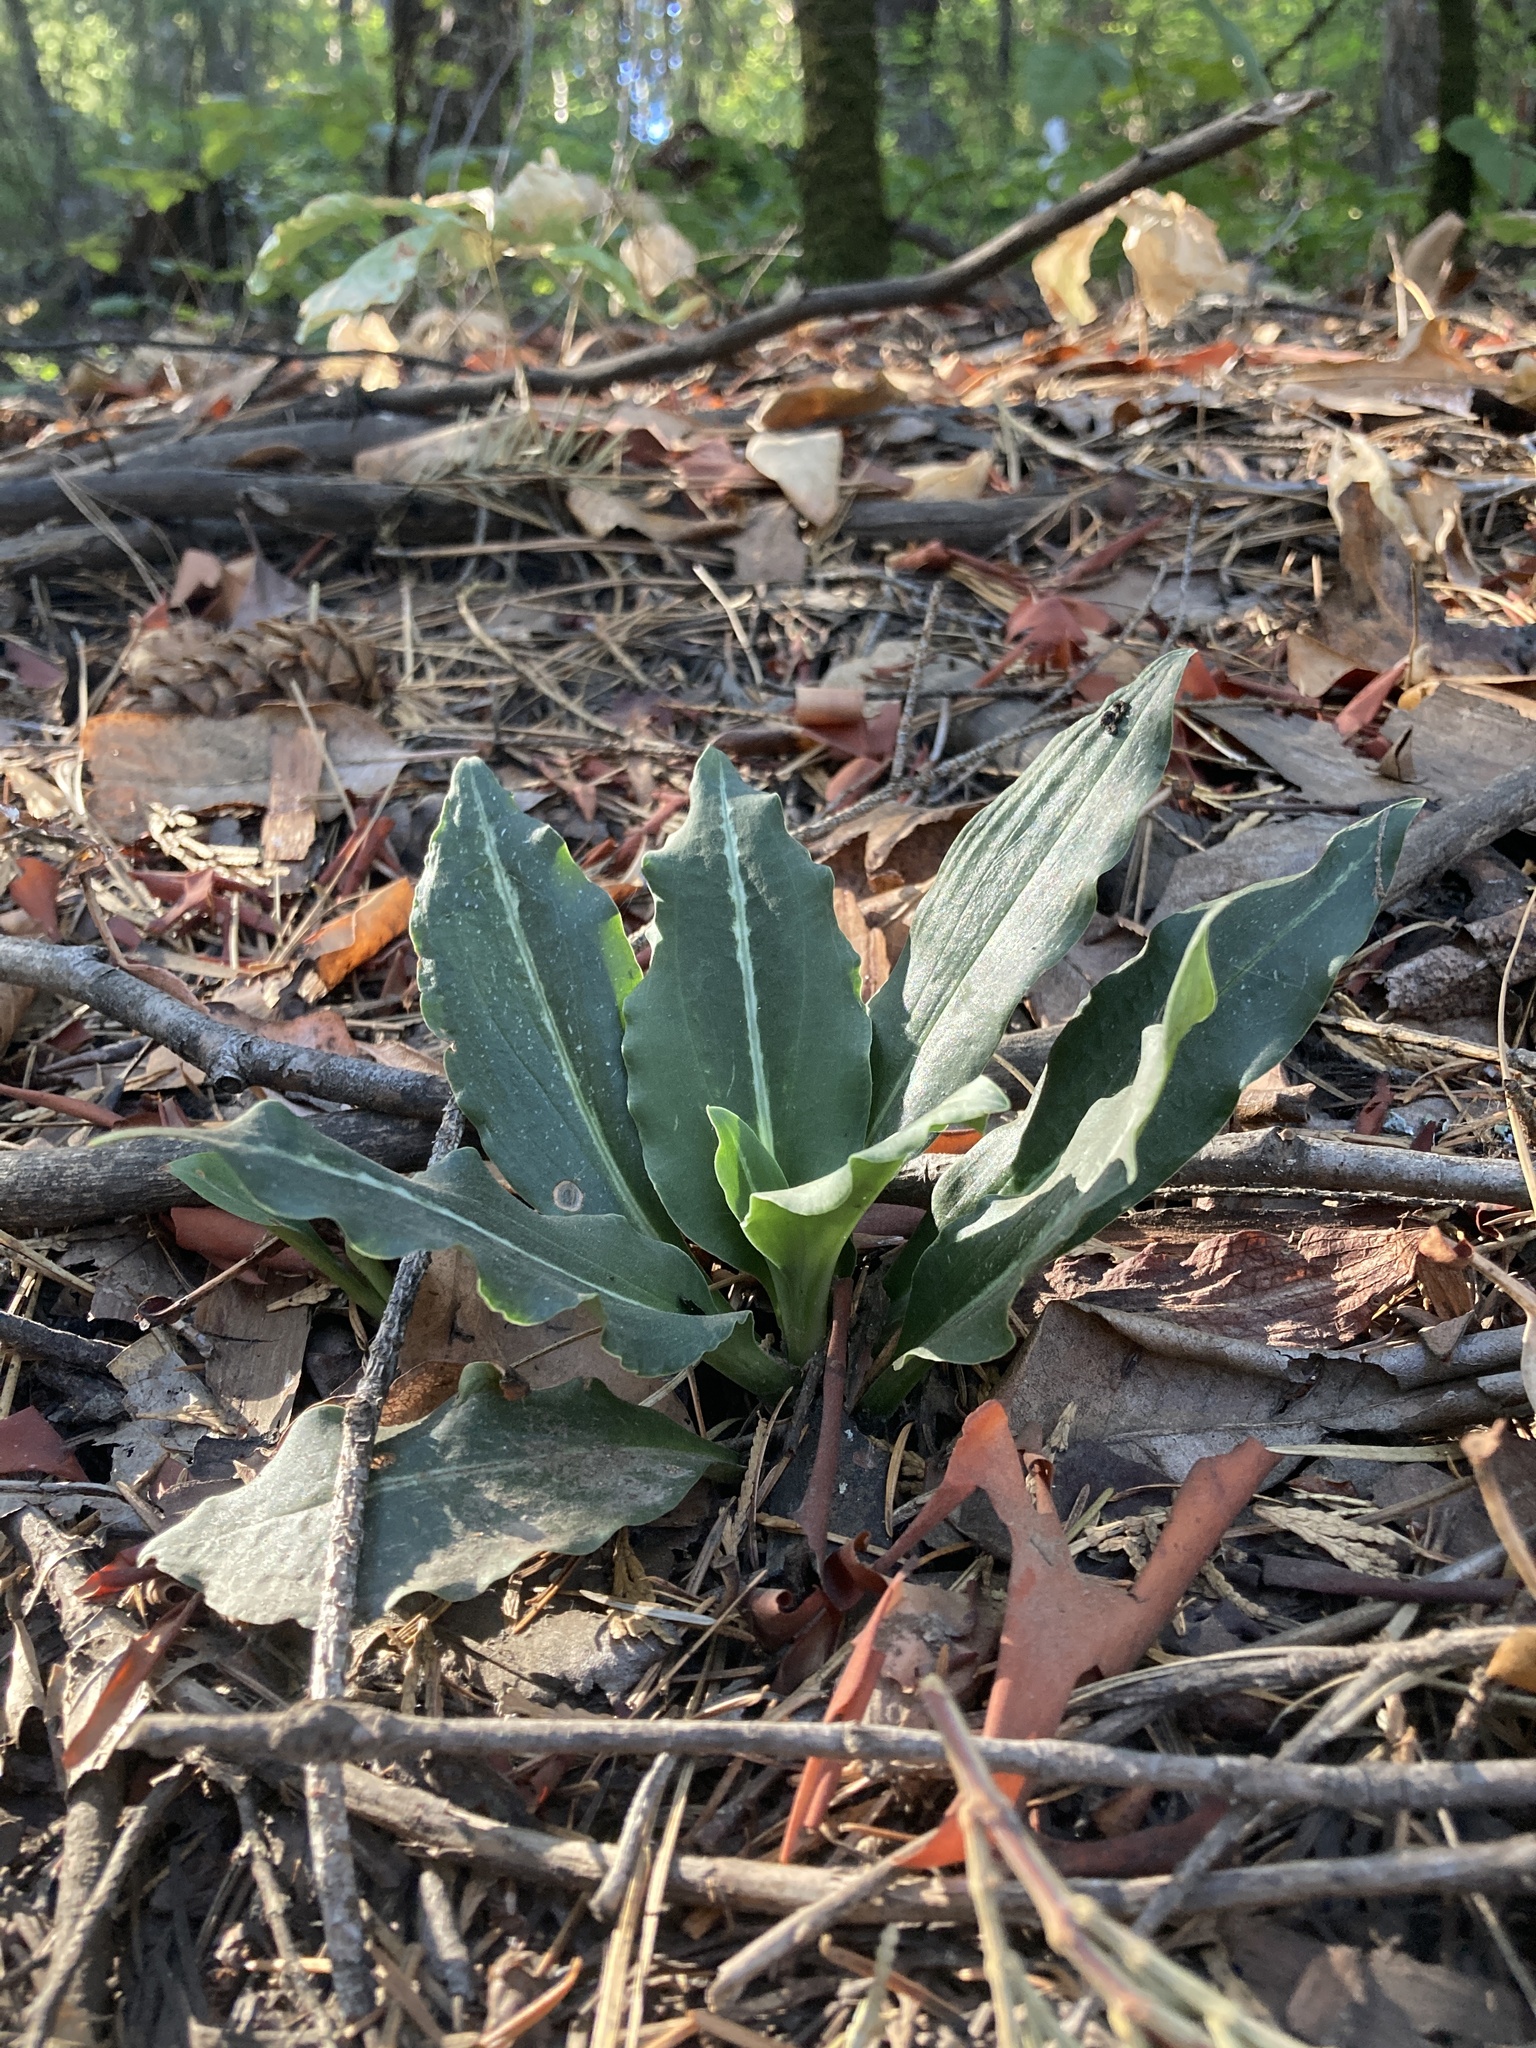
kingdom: Plantae
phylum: Tracheophyta
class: Liliopsida
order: Asparagales
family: Orchidaceae
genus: Goodyera
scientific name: Goodyera oblongifolia
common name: Giant rattlesnake-plantain
